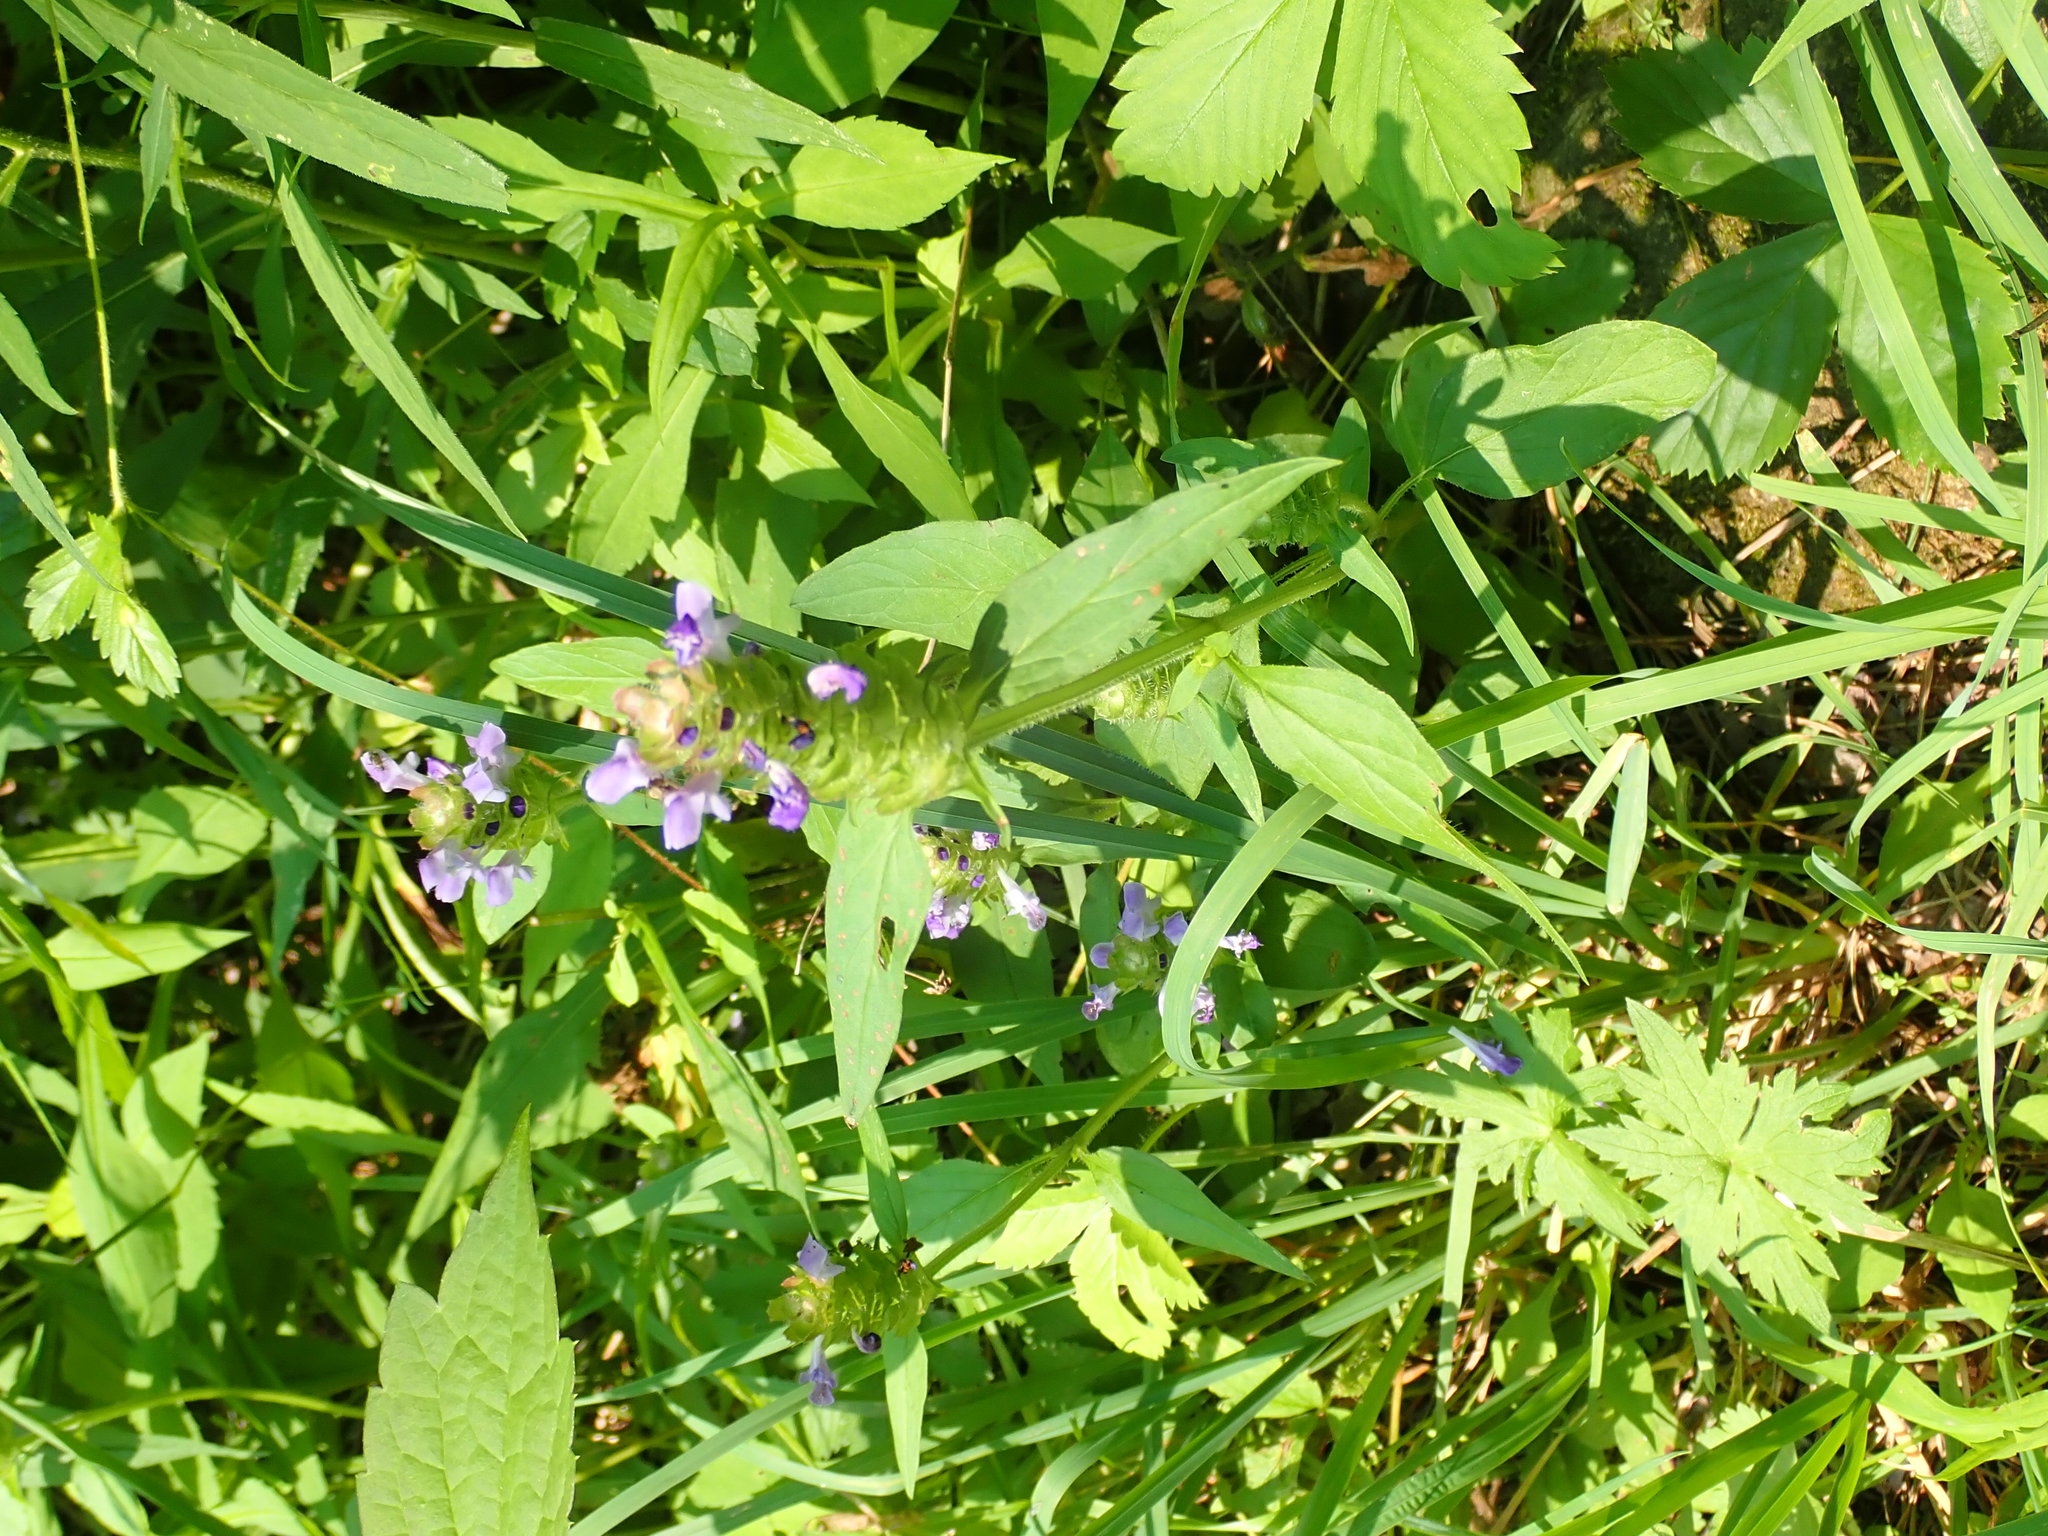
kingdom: Plantae
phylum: Tracheophyta
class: Magnoliopsida
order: Lamiales
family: Lamiaceae
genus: Prunella
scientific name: Prunella vulgaris
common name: Heal-all
